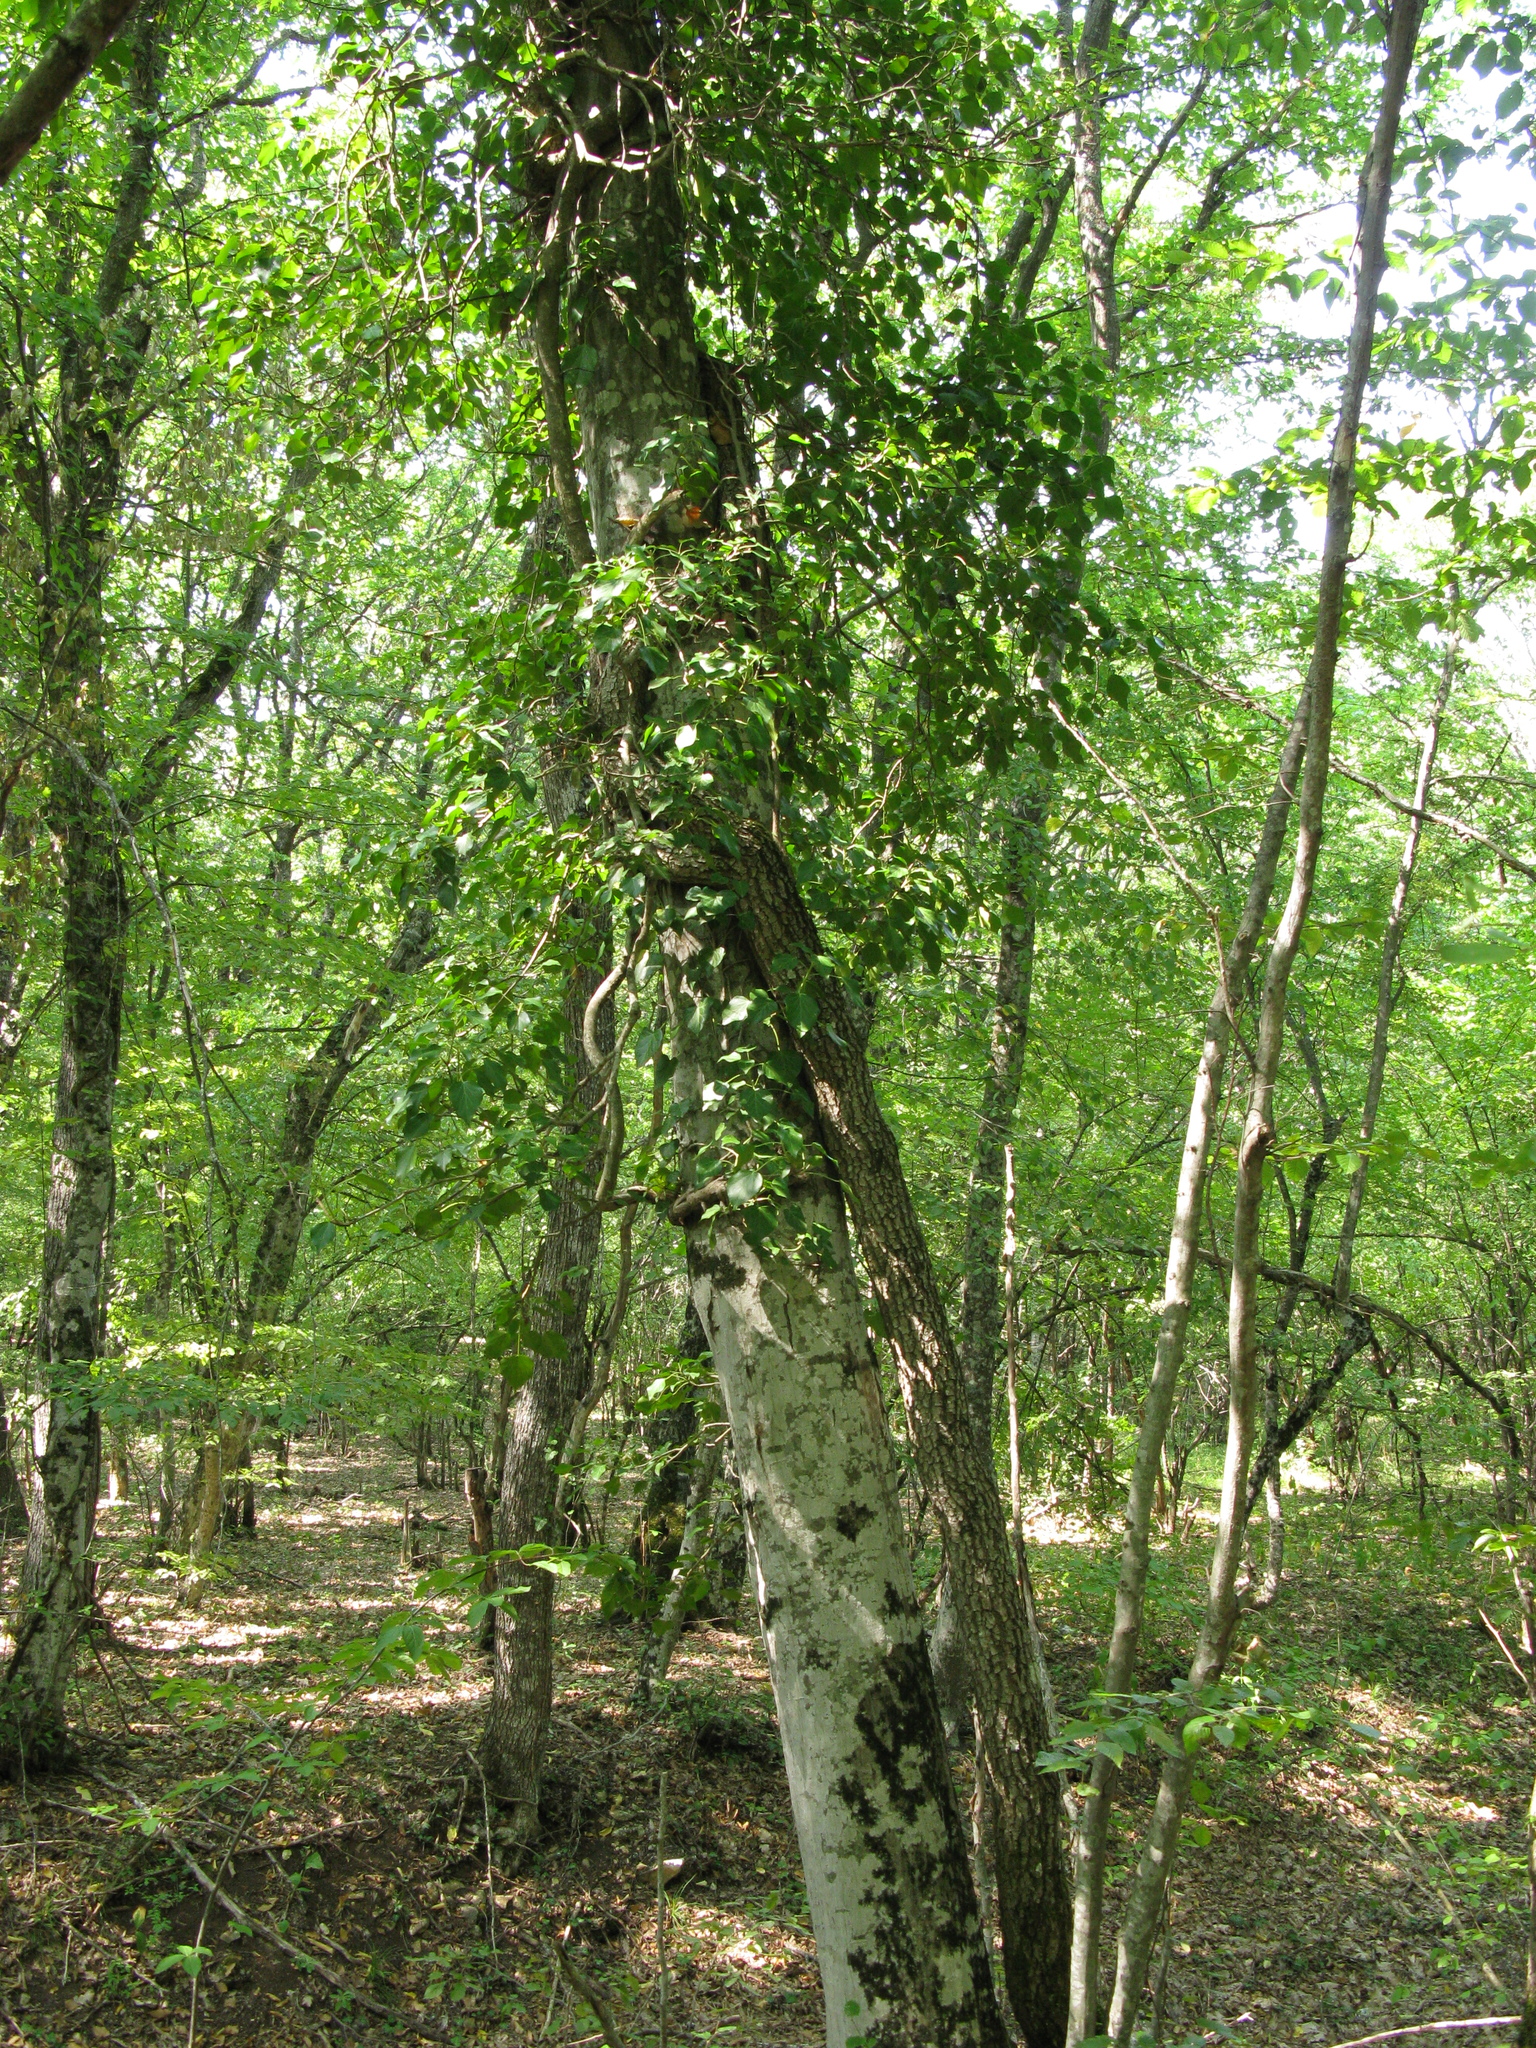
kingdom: Plantae
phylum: Tracheophyta
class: Magnoliopsida
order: Apiales
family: Araliaceae
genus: Hedera
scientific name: Hedera helix
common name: Ivy
